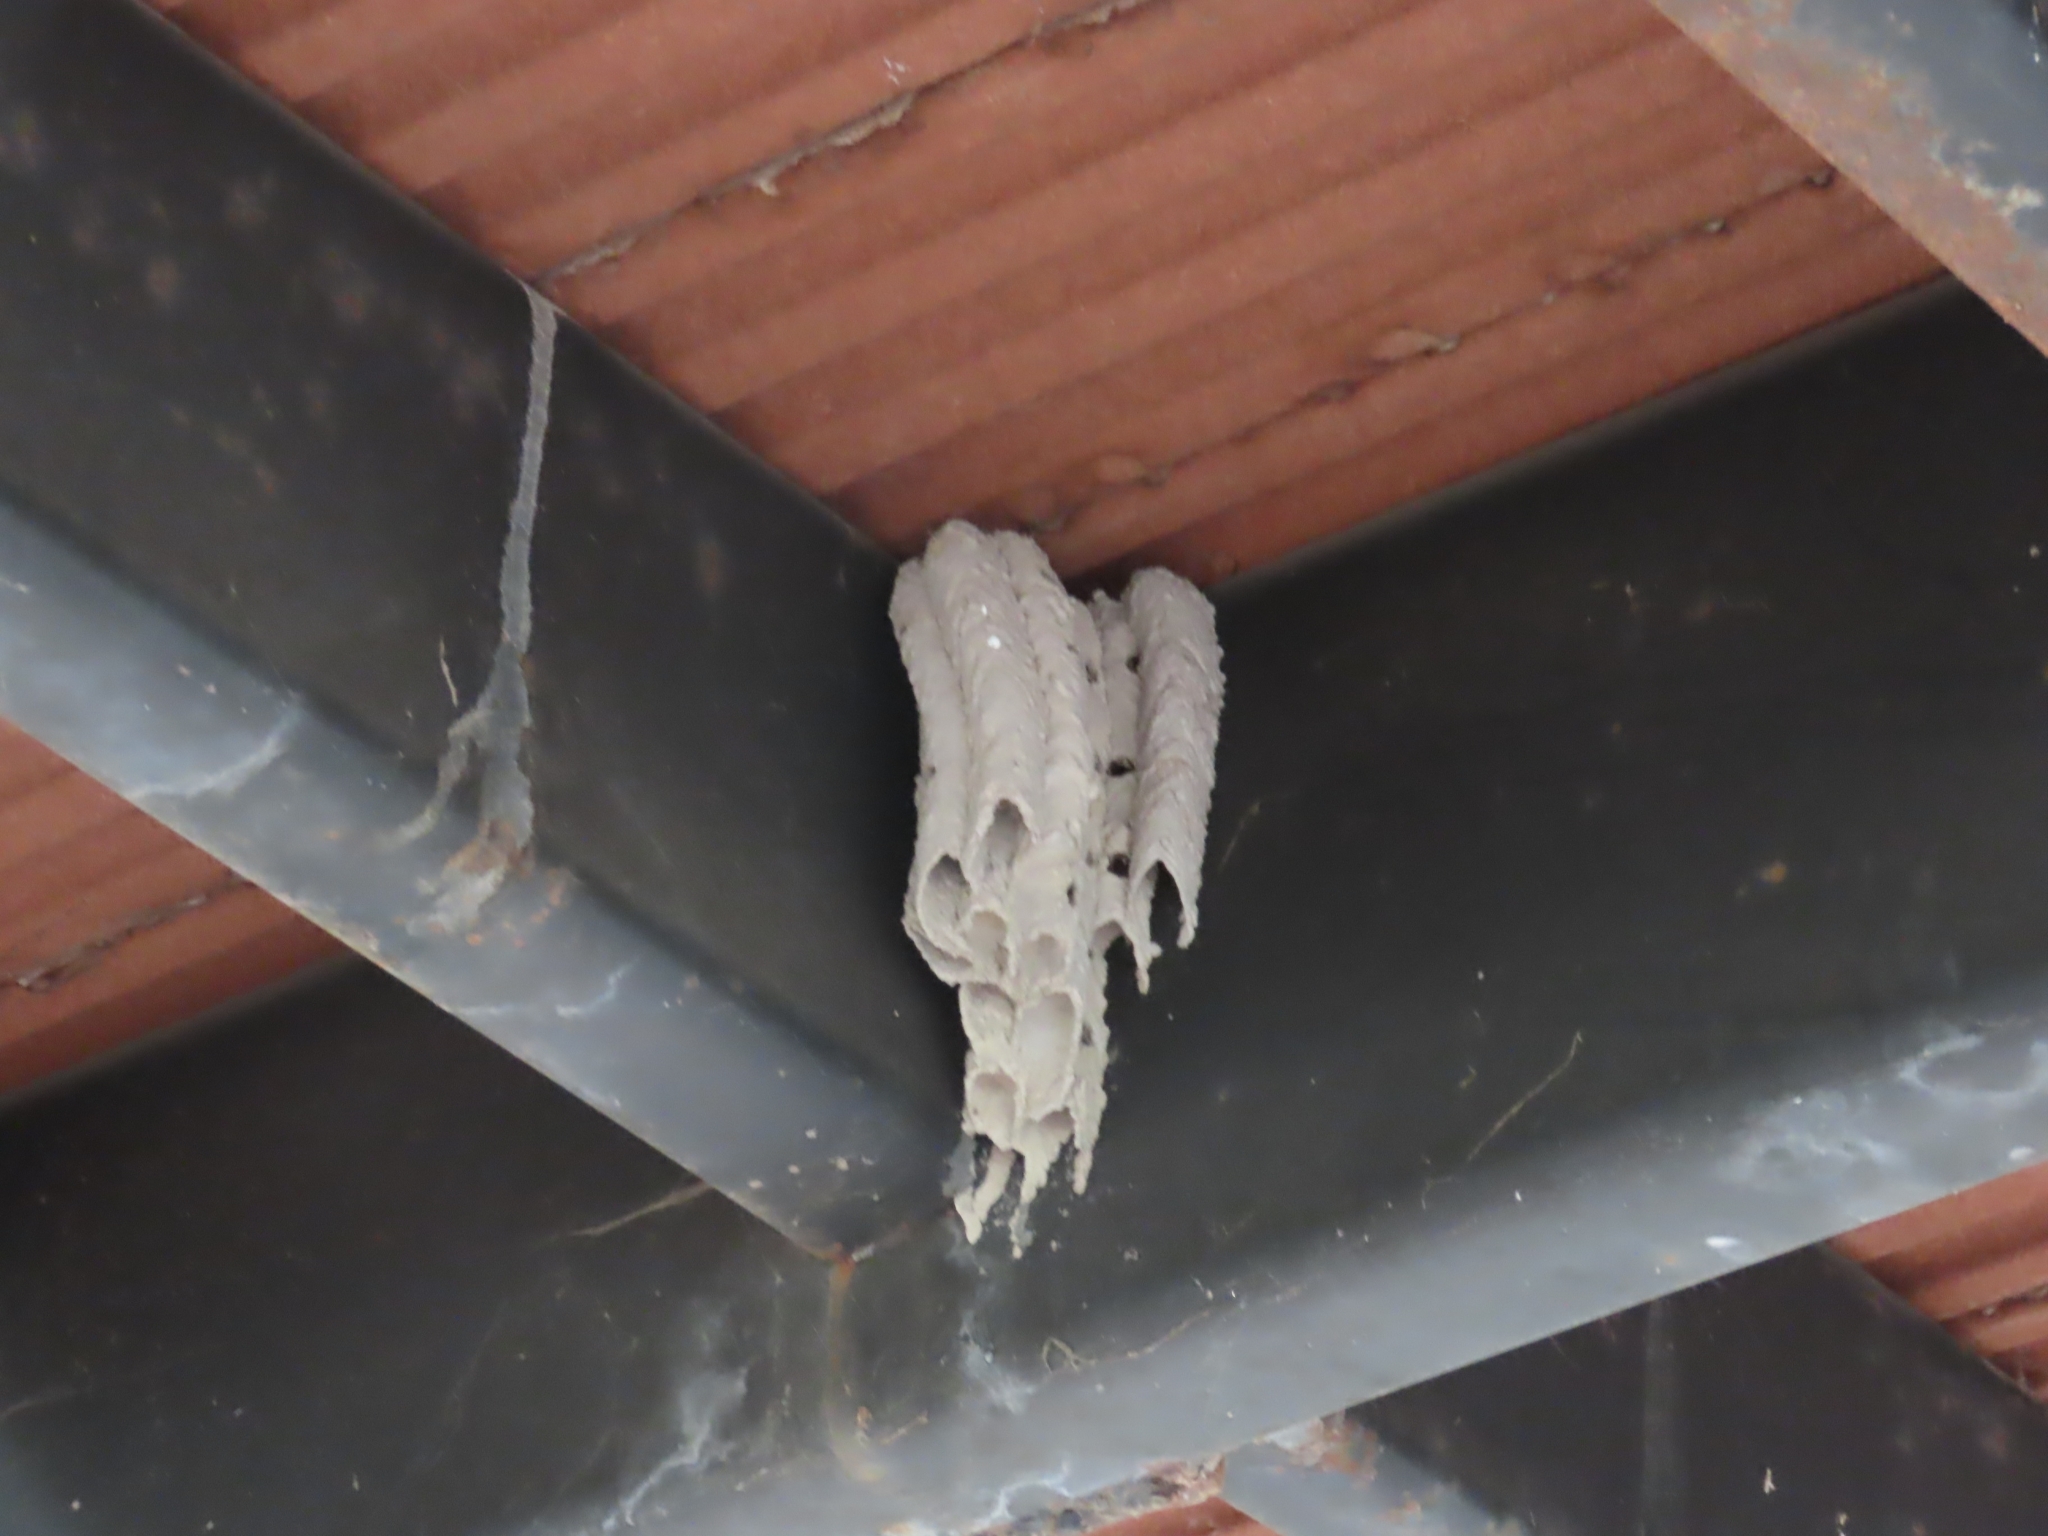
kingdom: Animalia
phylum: Arthropoda
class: Insecta
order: Hymenoptera
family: Crabronidae
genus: Trypoxylon
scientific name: Trypoxylon politum
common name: Organ-pipe mud-dauber wasp
